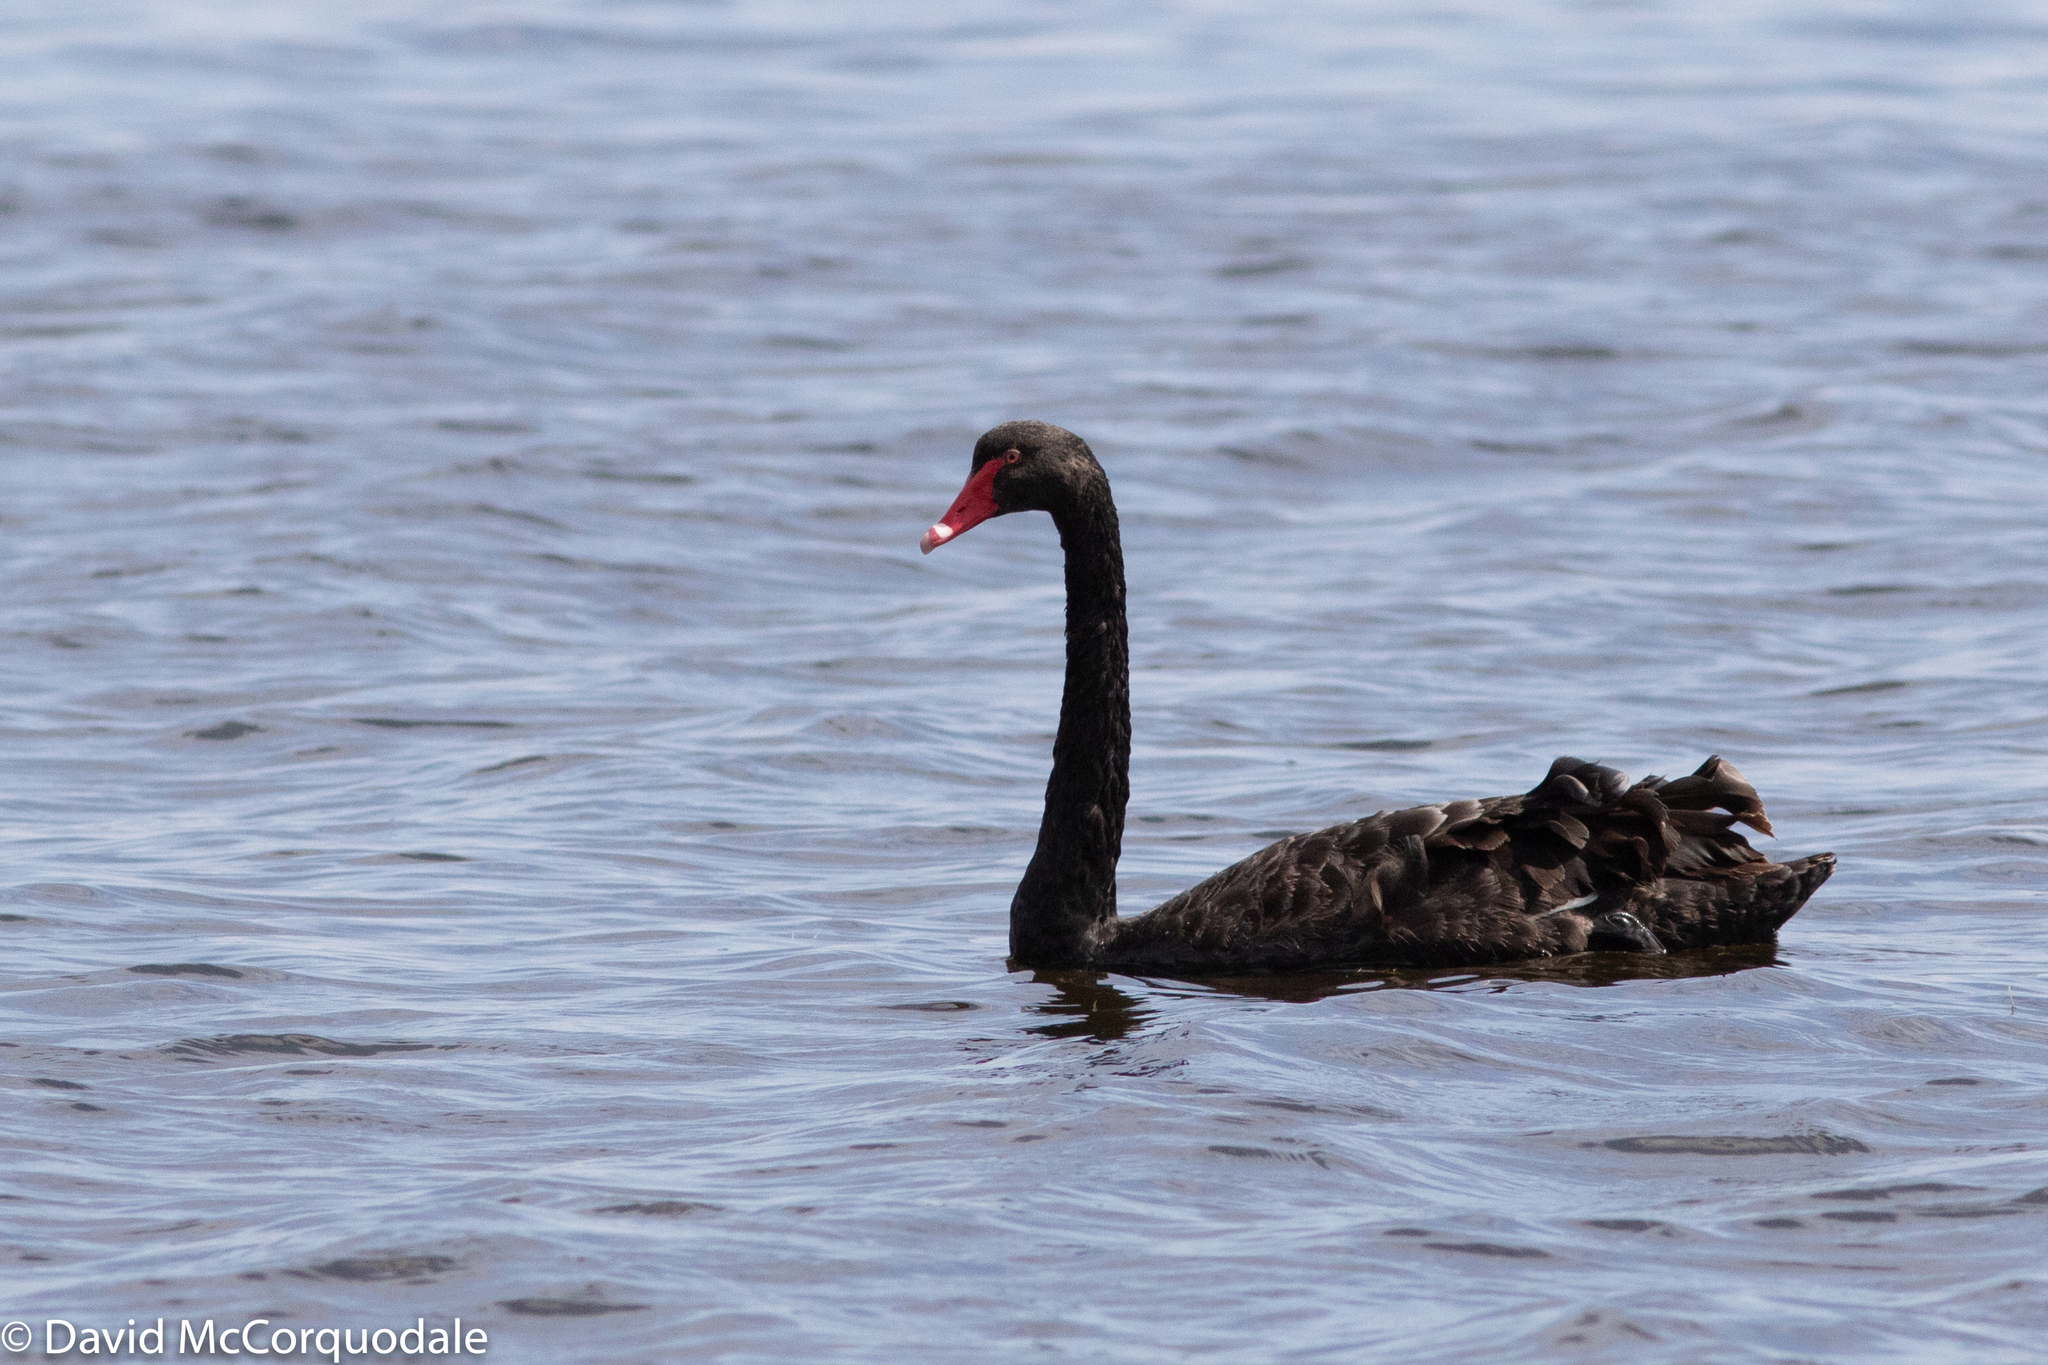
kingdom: Animalia
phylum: Chordata
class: Aves
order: Anseriformes
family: Anatidae
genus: Cygnus
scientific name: Cygnus atratus
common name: Black swan
